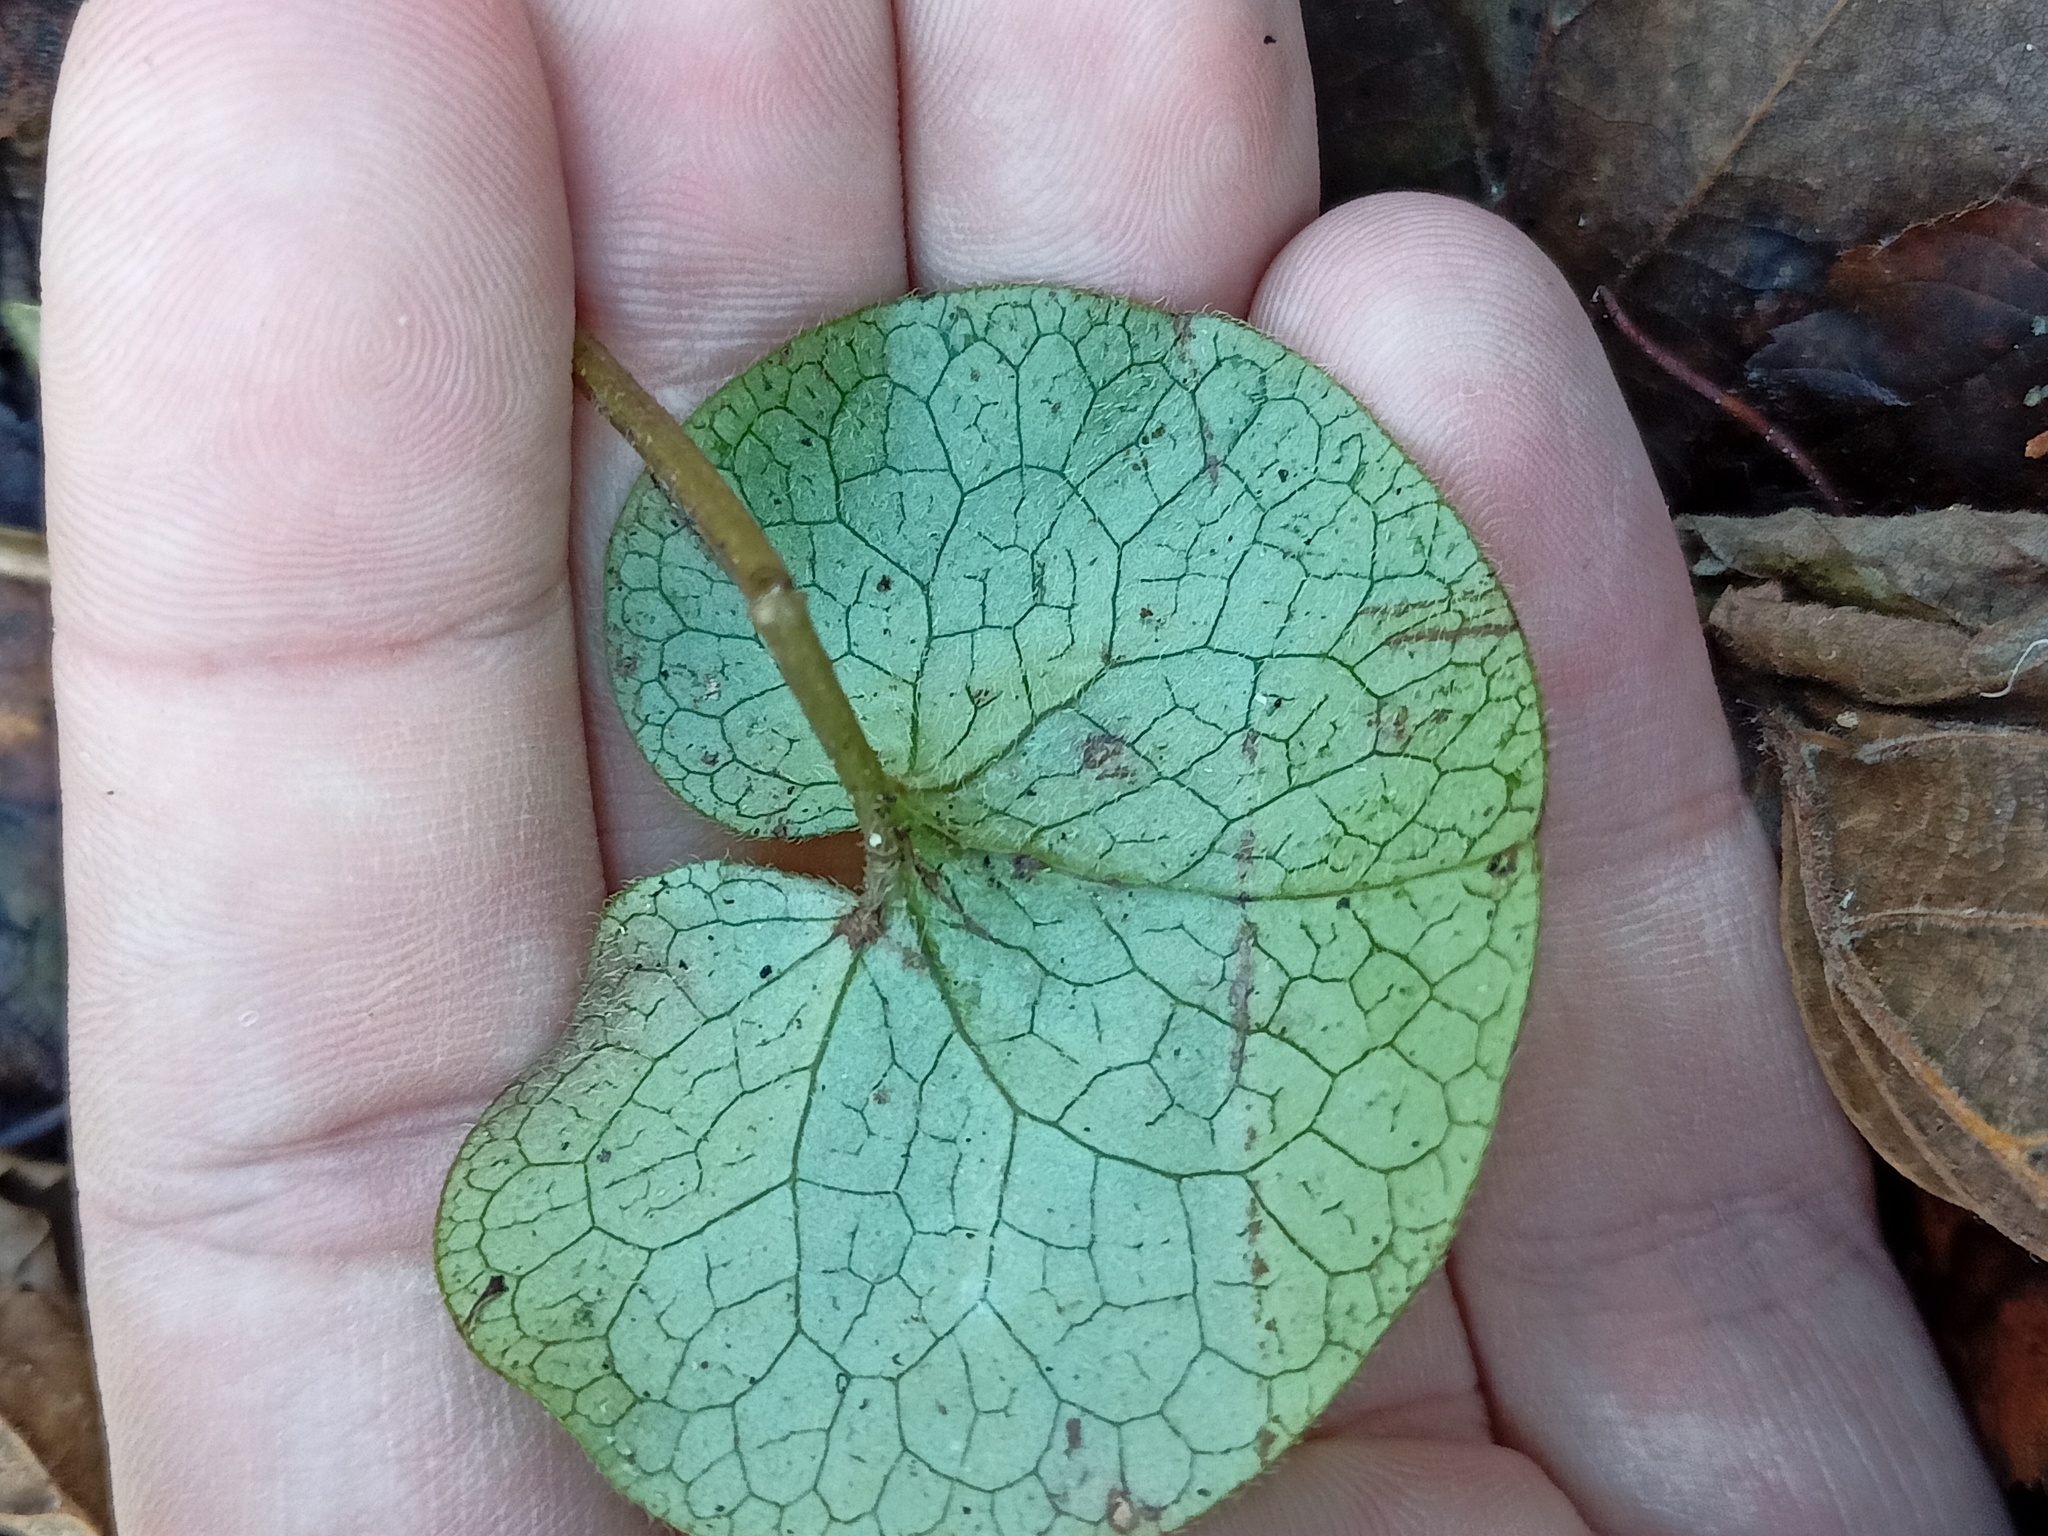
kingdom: Plantae
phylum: Tracheophyta
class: Magnoliopsida
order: Piperales
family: Aristolochiaceae
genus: Asarum
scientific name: Asarum europaeum
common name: Asarabacca
